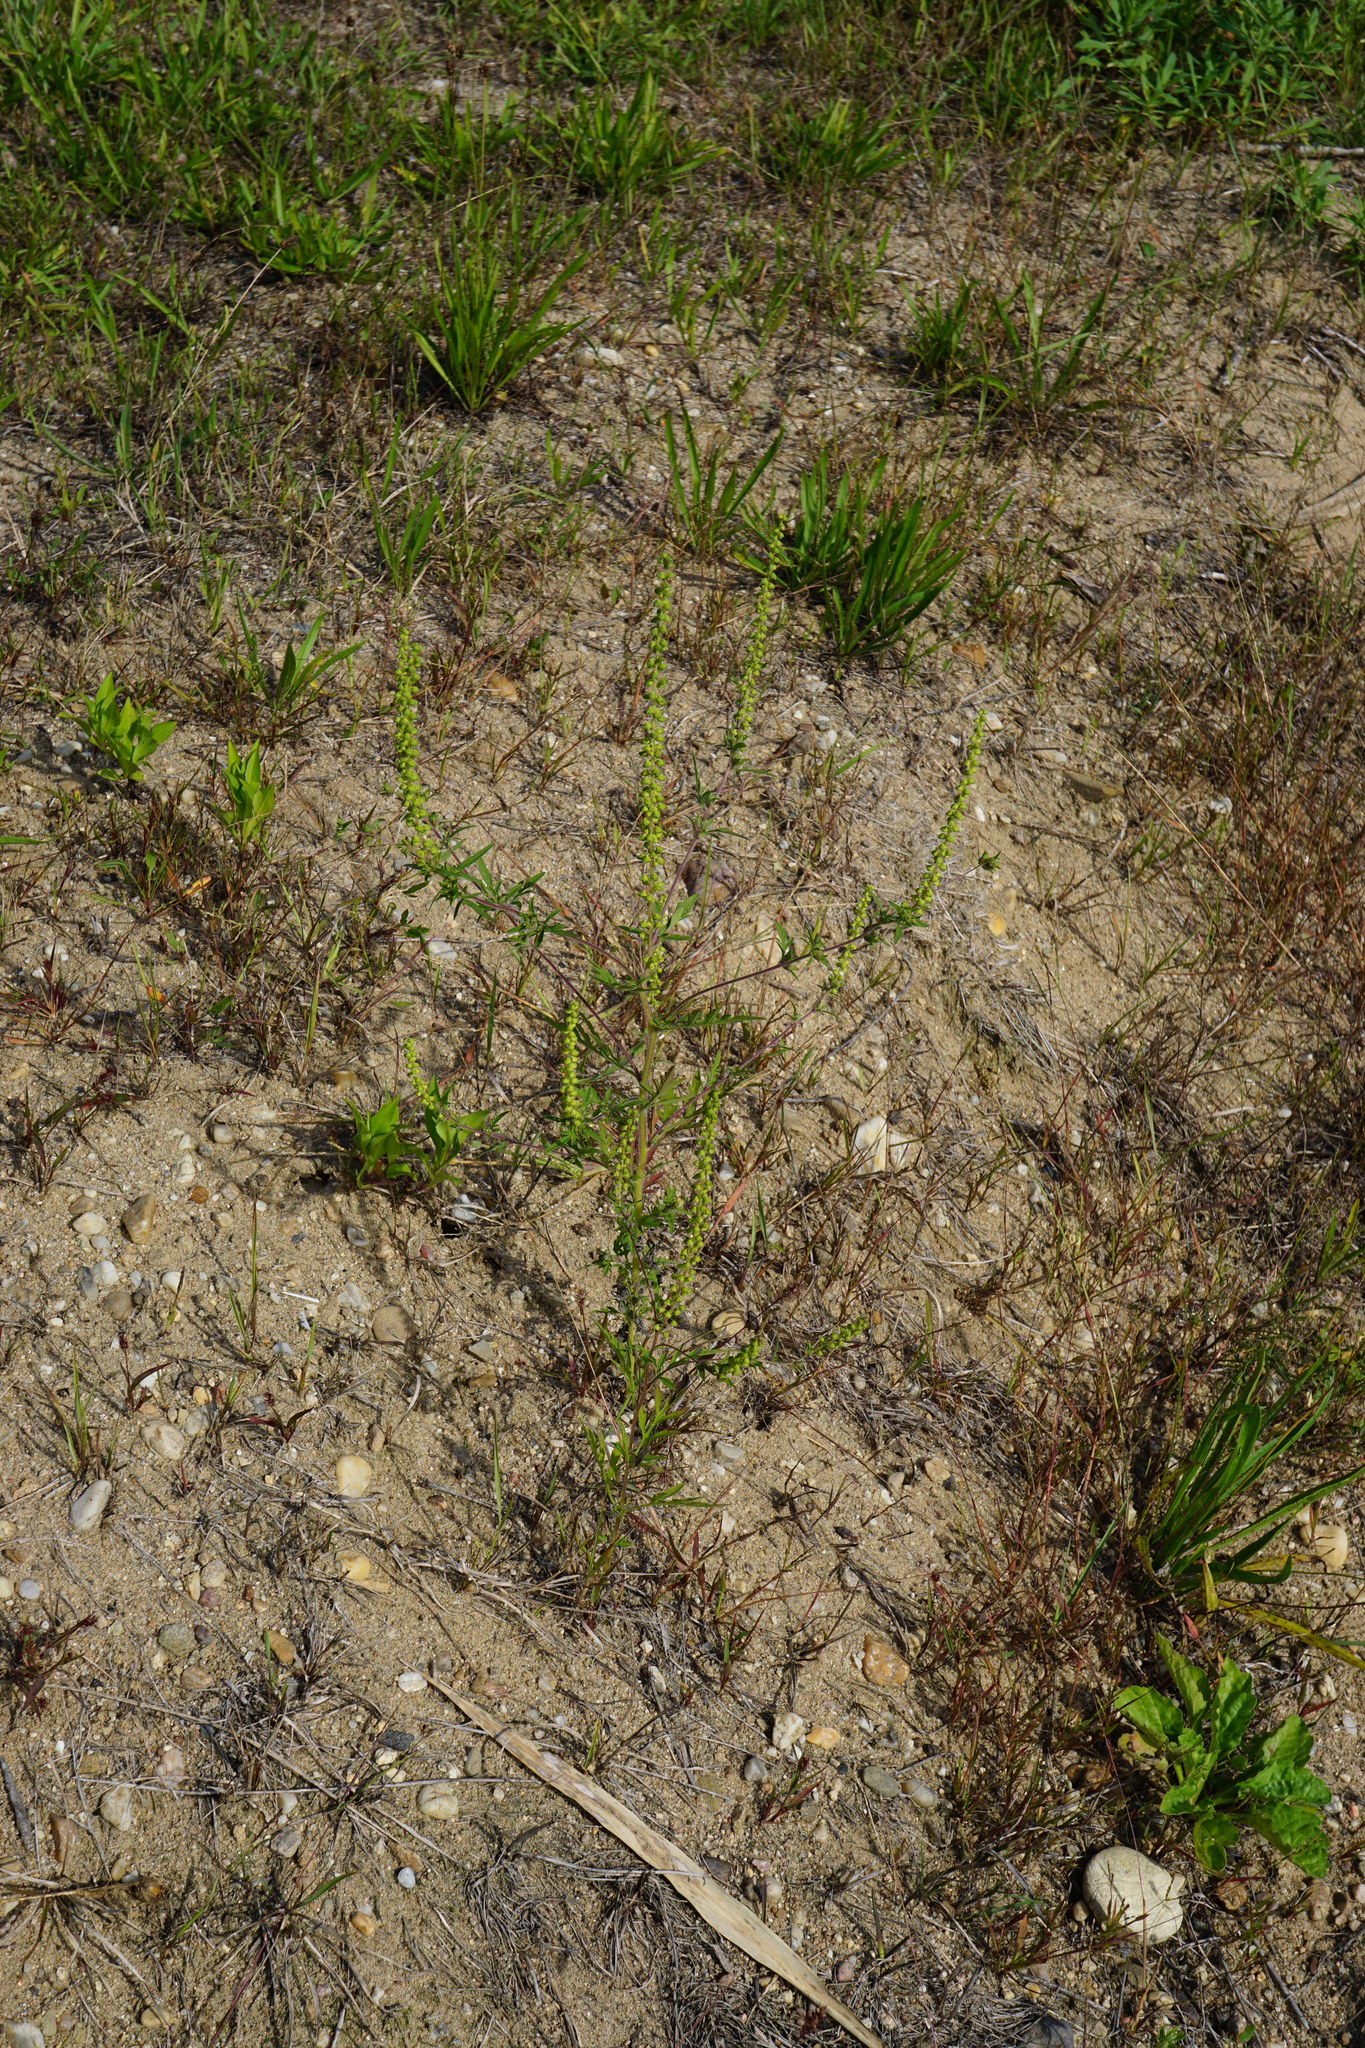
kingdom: Plantae
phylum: Tracheophyta
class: Magnoliopsida
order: Asterales
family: Asteraceae
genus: Ambrosia
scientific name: Ambrosia artemisiifolia
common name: Annual ragweed
